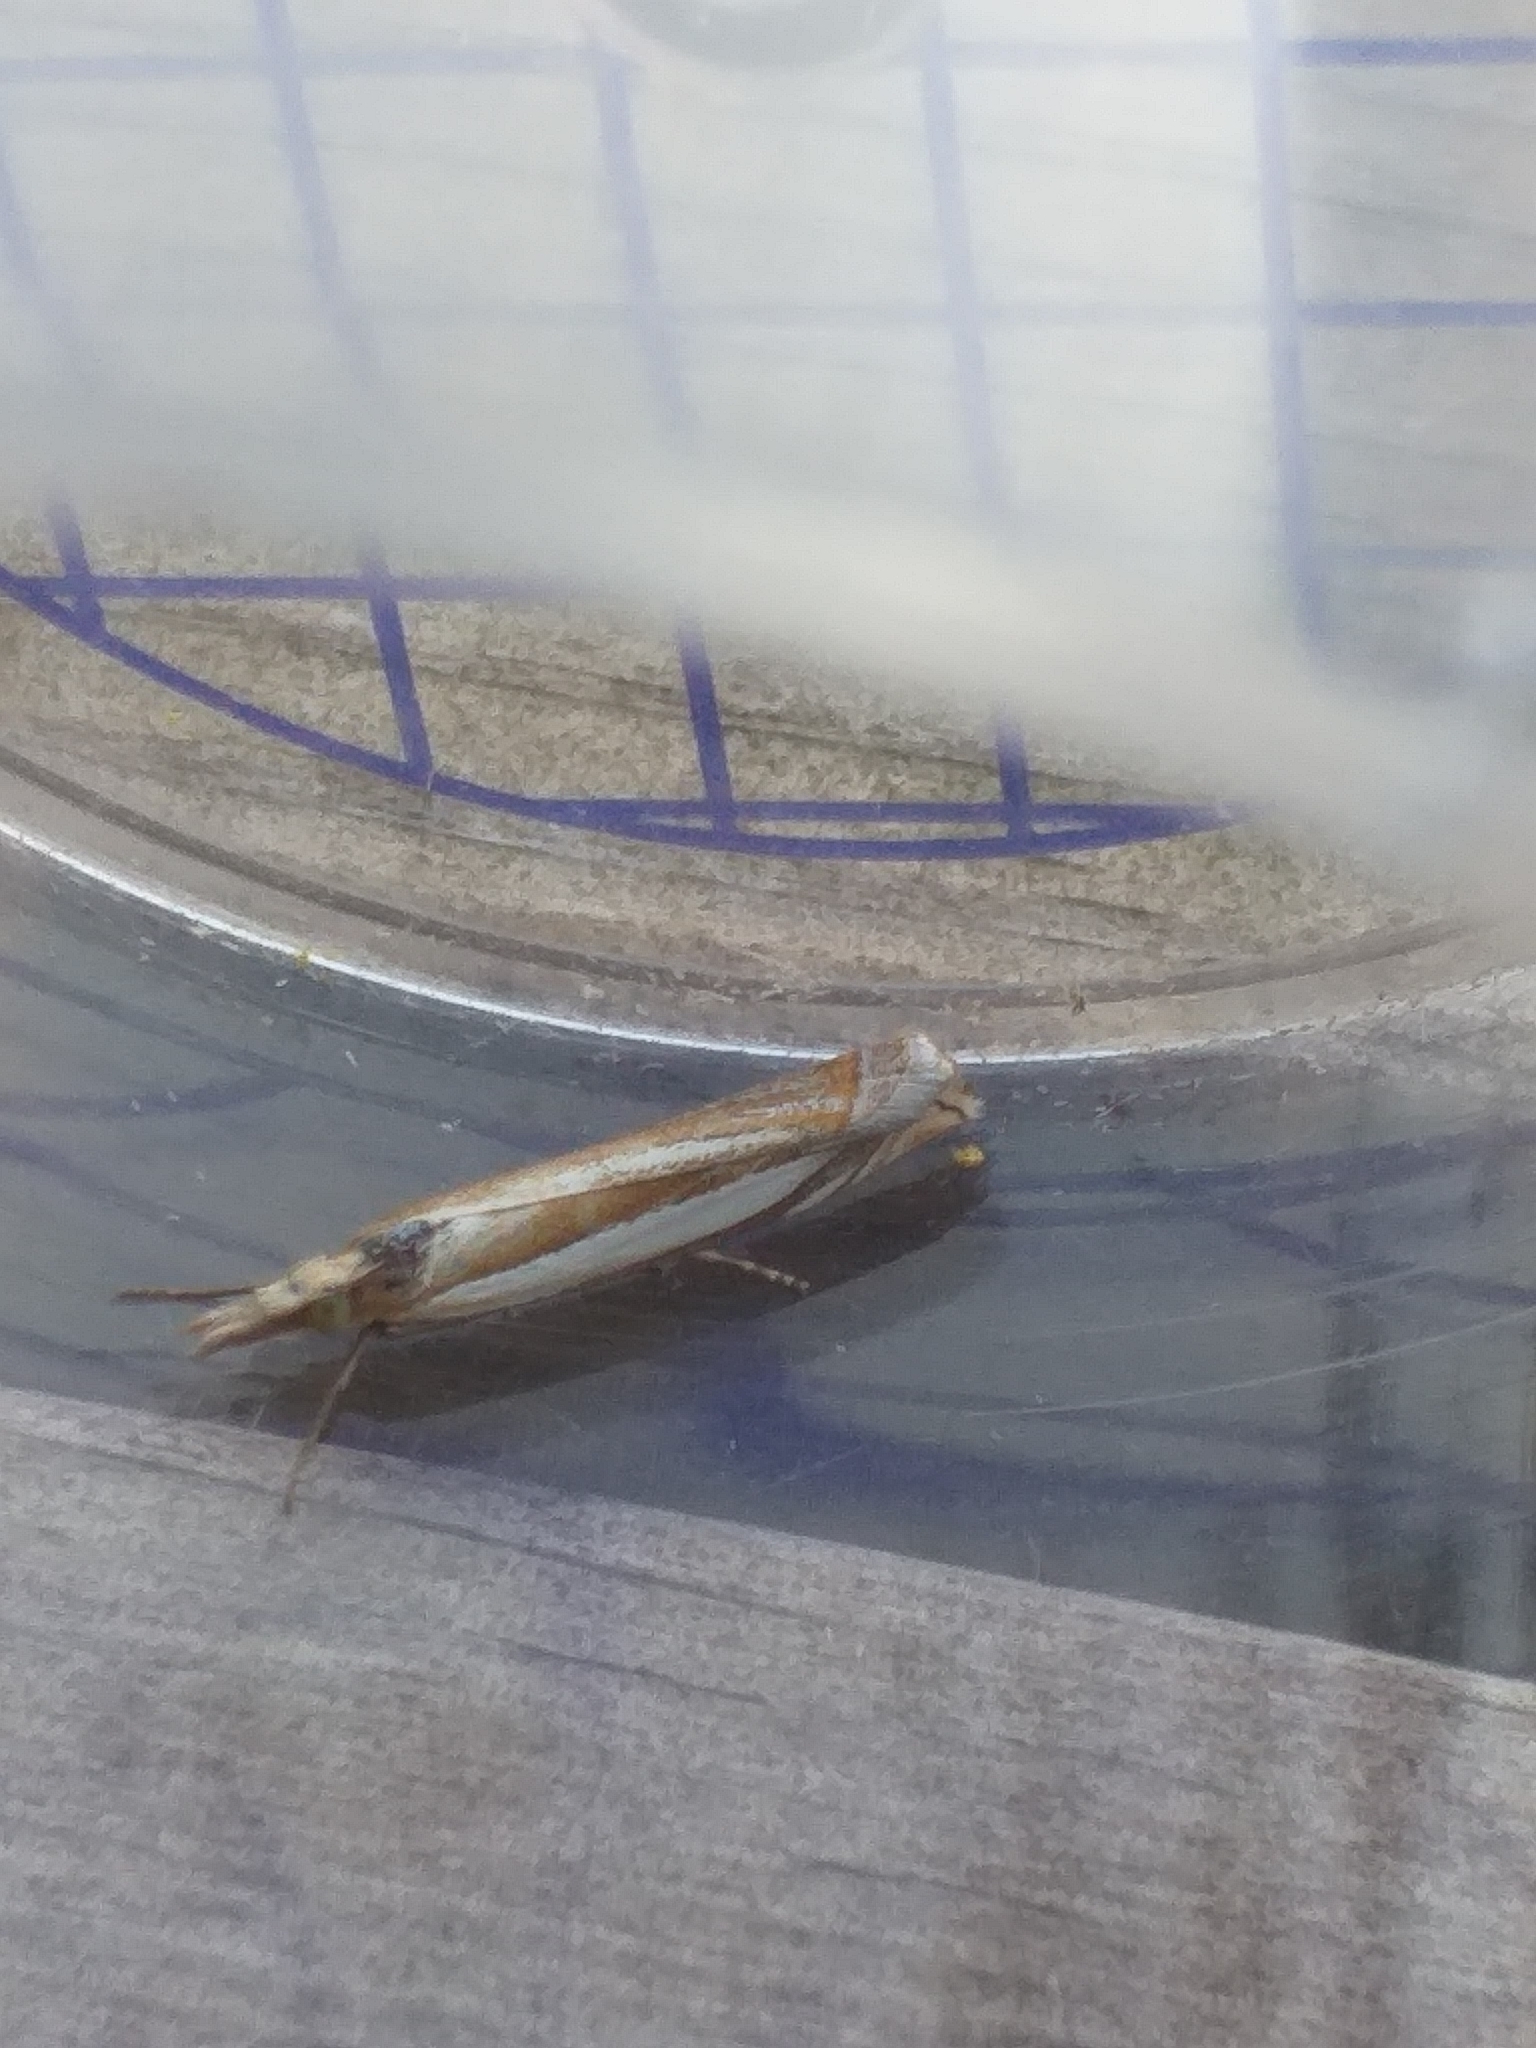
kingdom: Animalia
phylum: Arthropoda
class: Insecta
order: Lepidoptera
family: Crambidae
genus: Crambus
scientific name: Crambus pascuella
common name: Inlaid grass-veneer
